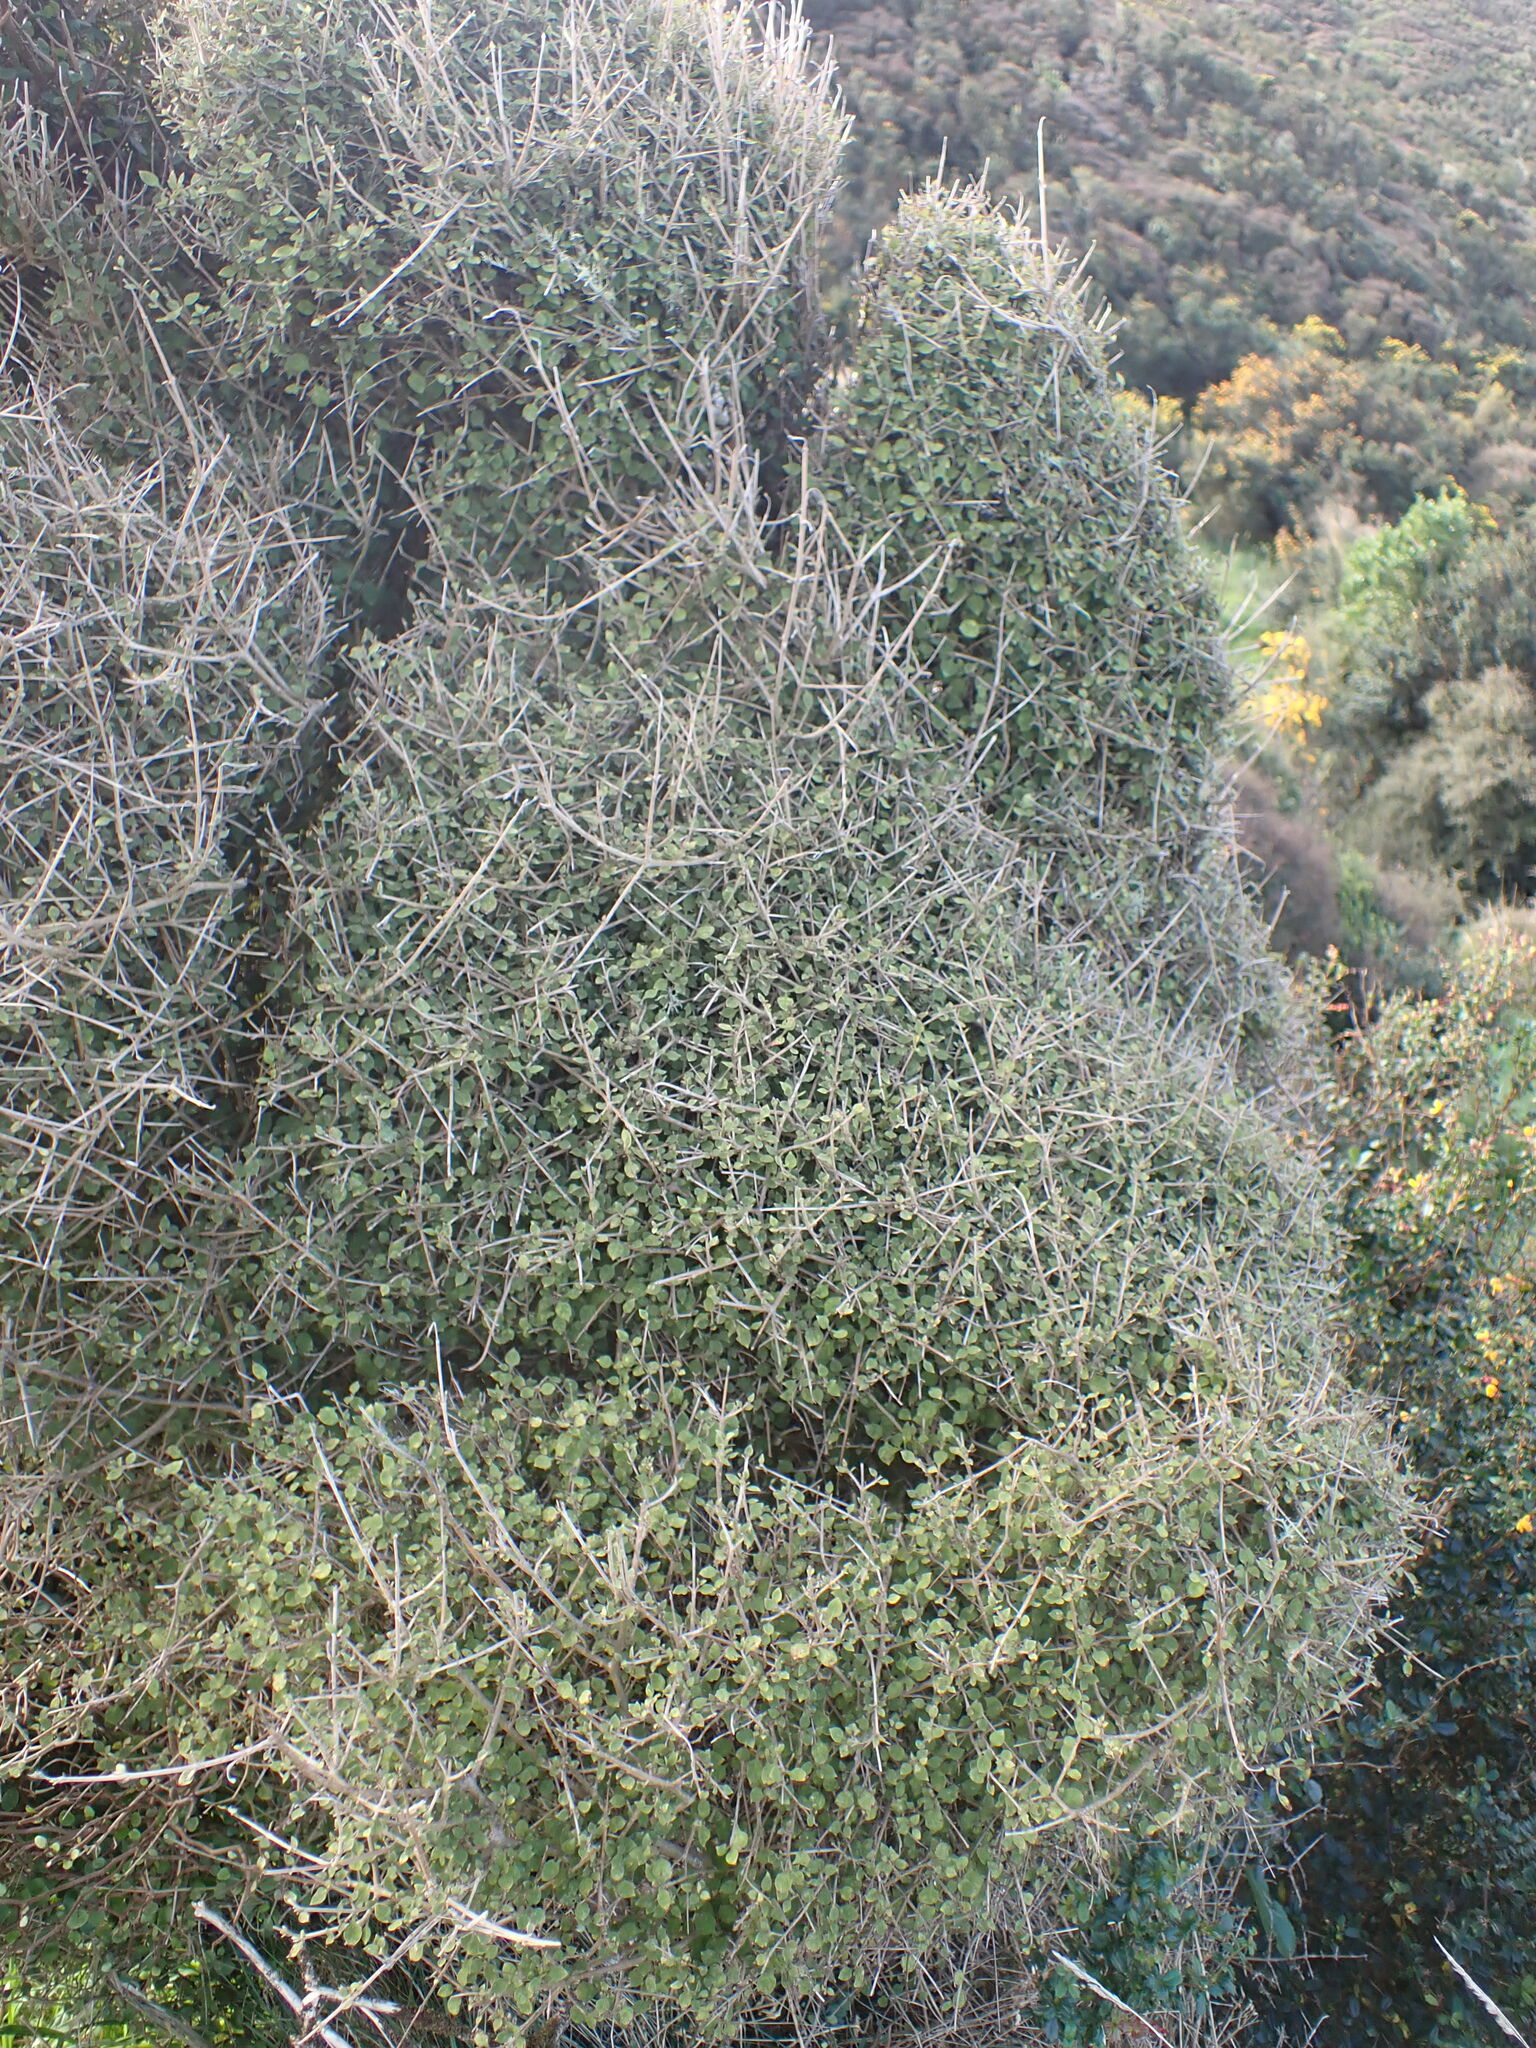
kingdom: Plantae
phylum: Tracheophyta
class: Magnoliopsida
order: Gentianales
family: Rubiaceae
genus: Coprosma
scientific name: Coprosma areolata
